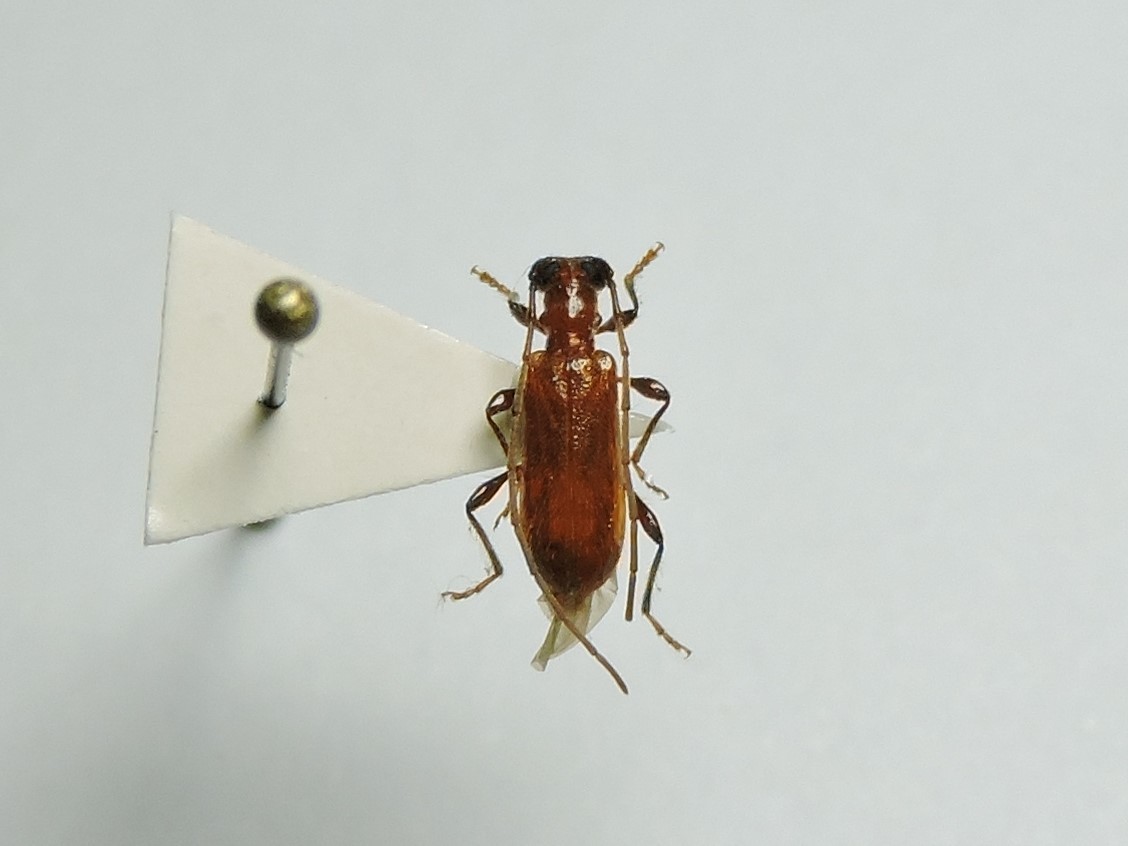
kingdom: Animalia
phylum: Arthropoda
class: Insecta
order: Coleoptera
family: Cerambycidae
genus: Obrium
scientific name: Obrium cantharinum
